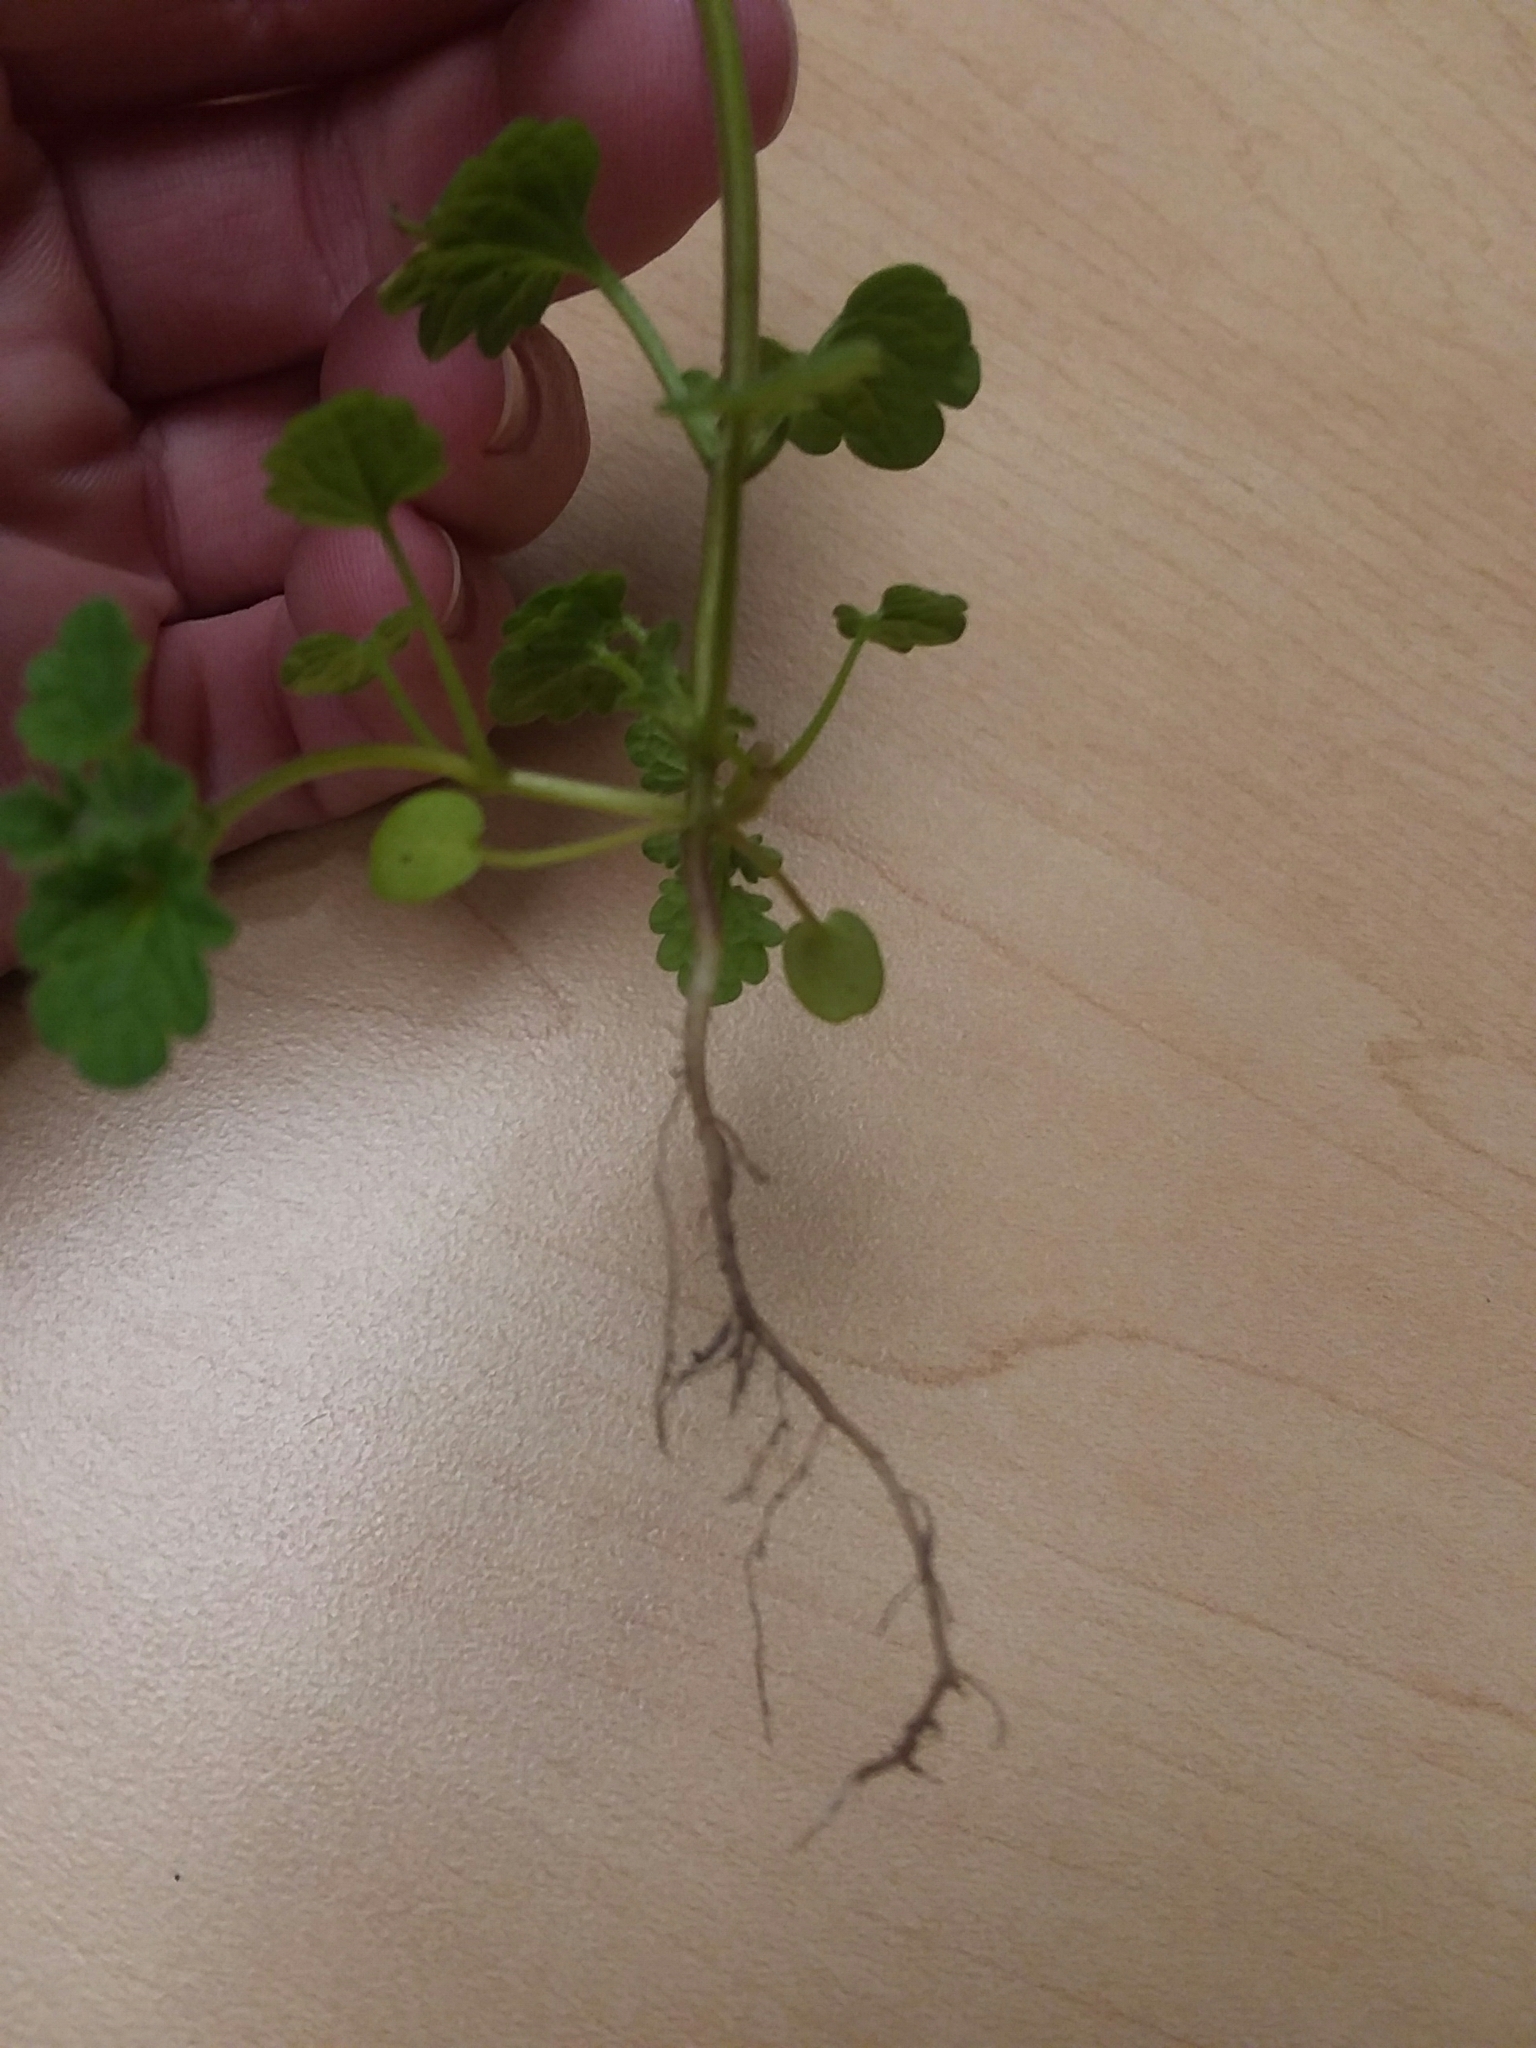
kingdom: Plantae
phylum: Tracheophyta
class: Magnoliopsida
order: Lamiales
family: Lamiaceae
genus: Lamium
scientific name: Lamium amplexicaule
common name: Henbit dead-nettle
